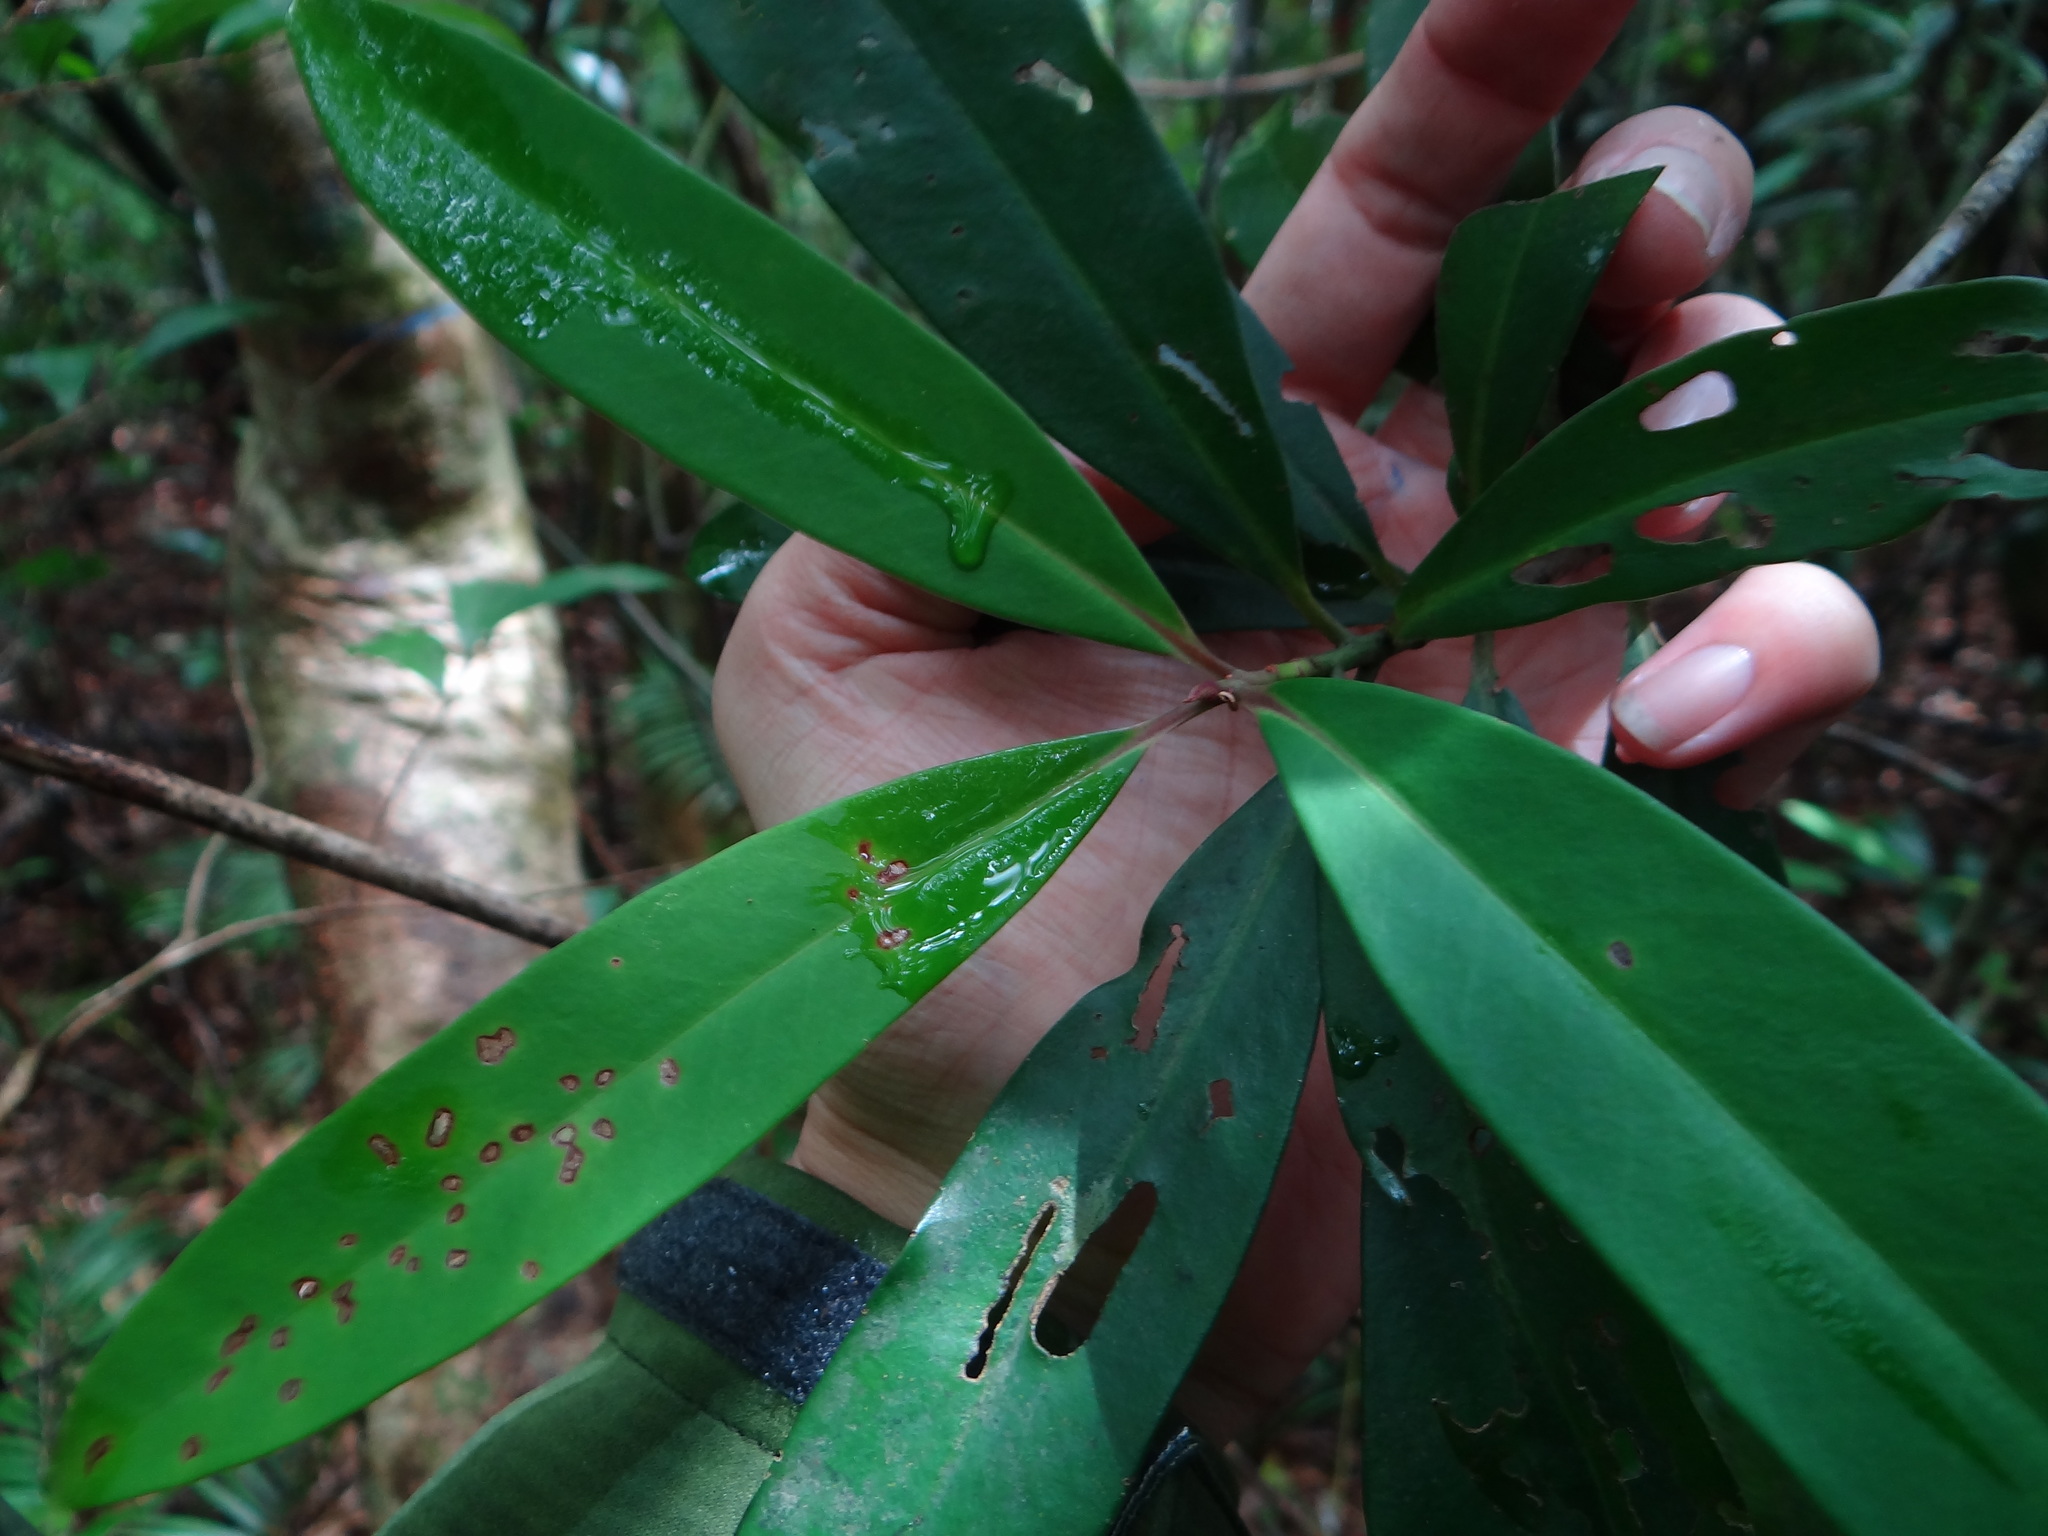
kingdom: Plantae
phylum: Tracheophyta
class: Magnoliopsida
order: Ericales
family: Primulaceae
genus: Myrsine
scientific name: Myrsine seguinii
